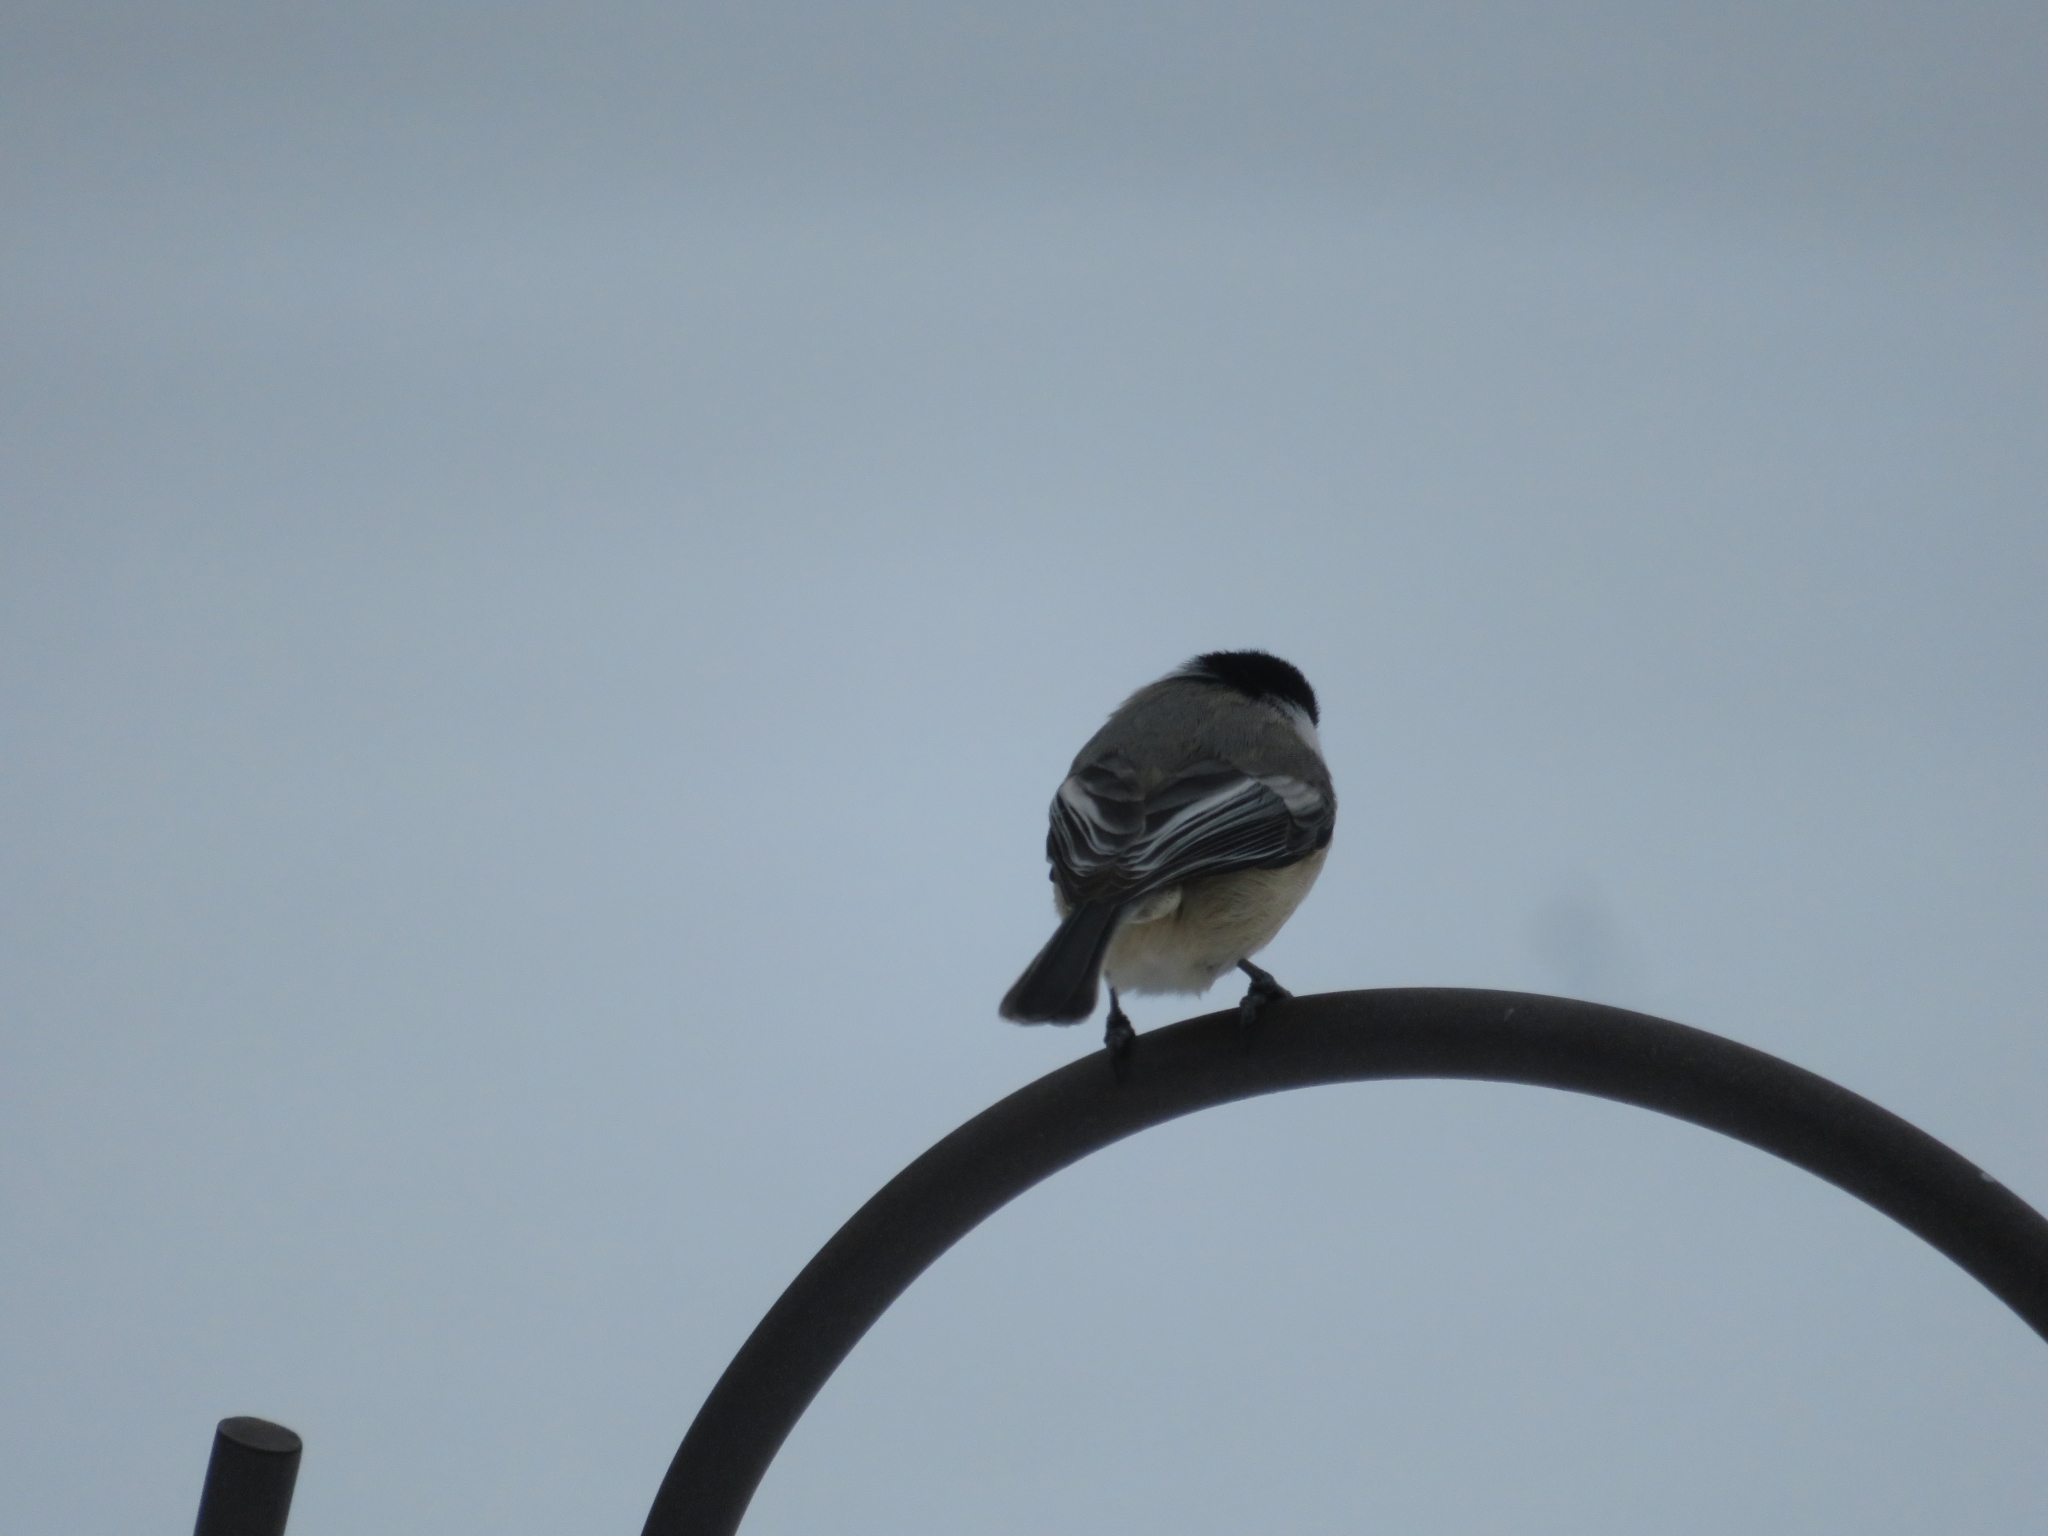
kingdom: Animalia
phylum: Chordata
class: Aves
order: Passeriformes
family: Paridae
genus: Poecile
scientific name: Poecile atricapillus
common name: Black-capped chickadee
